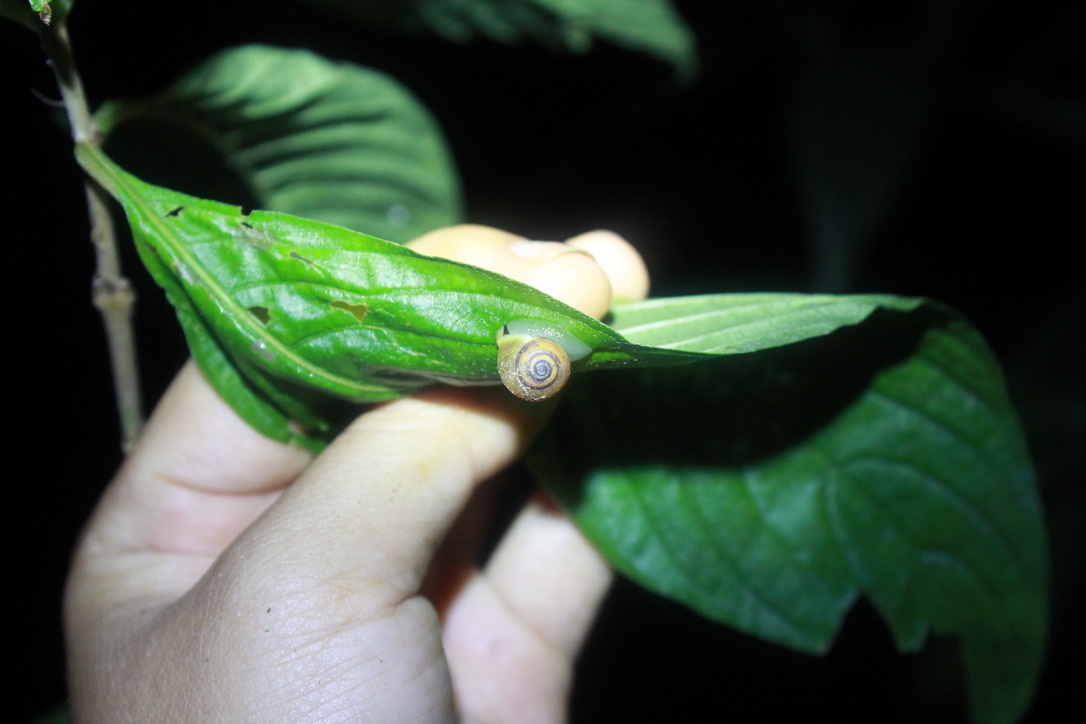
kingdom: Animalia
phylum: Mollusca
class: Gastropoda
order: Cycloneritida
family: Helicinidae
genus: Helicina
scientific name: Helicina nemoralis
